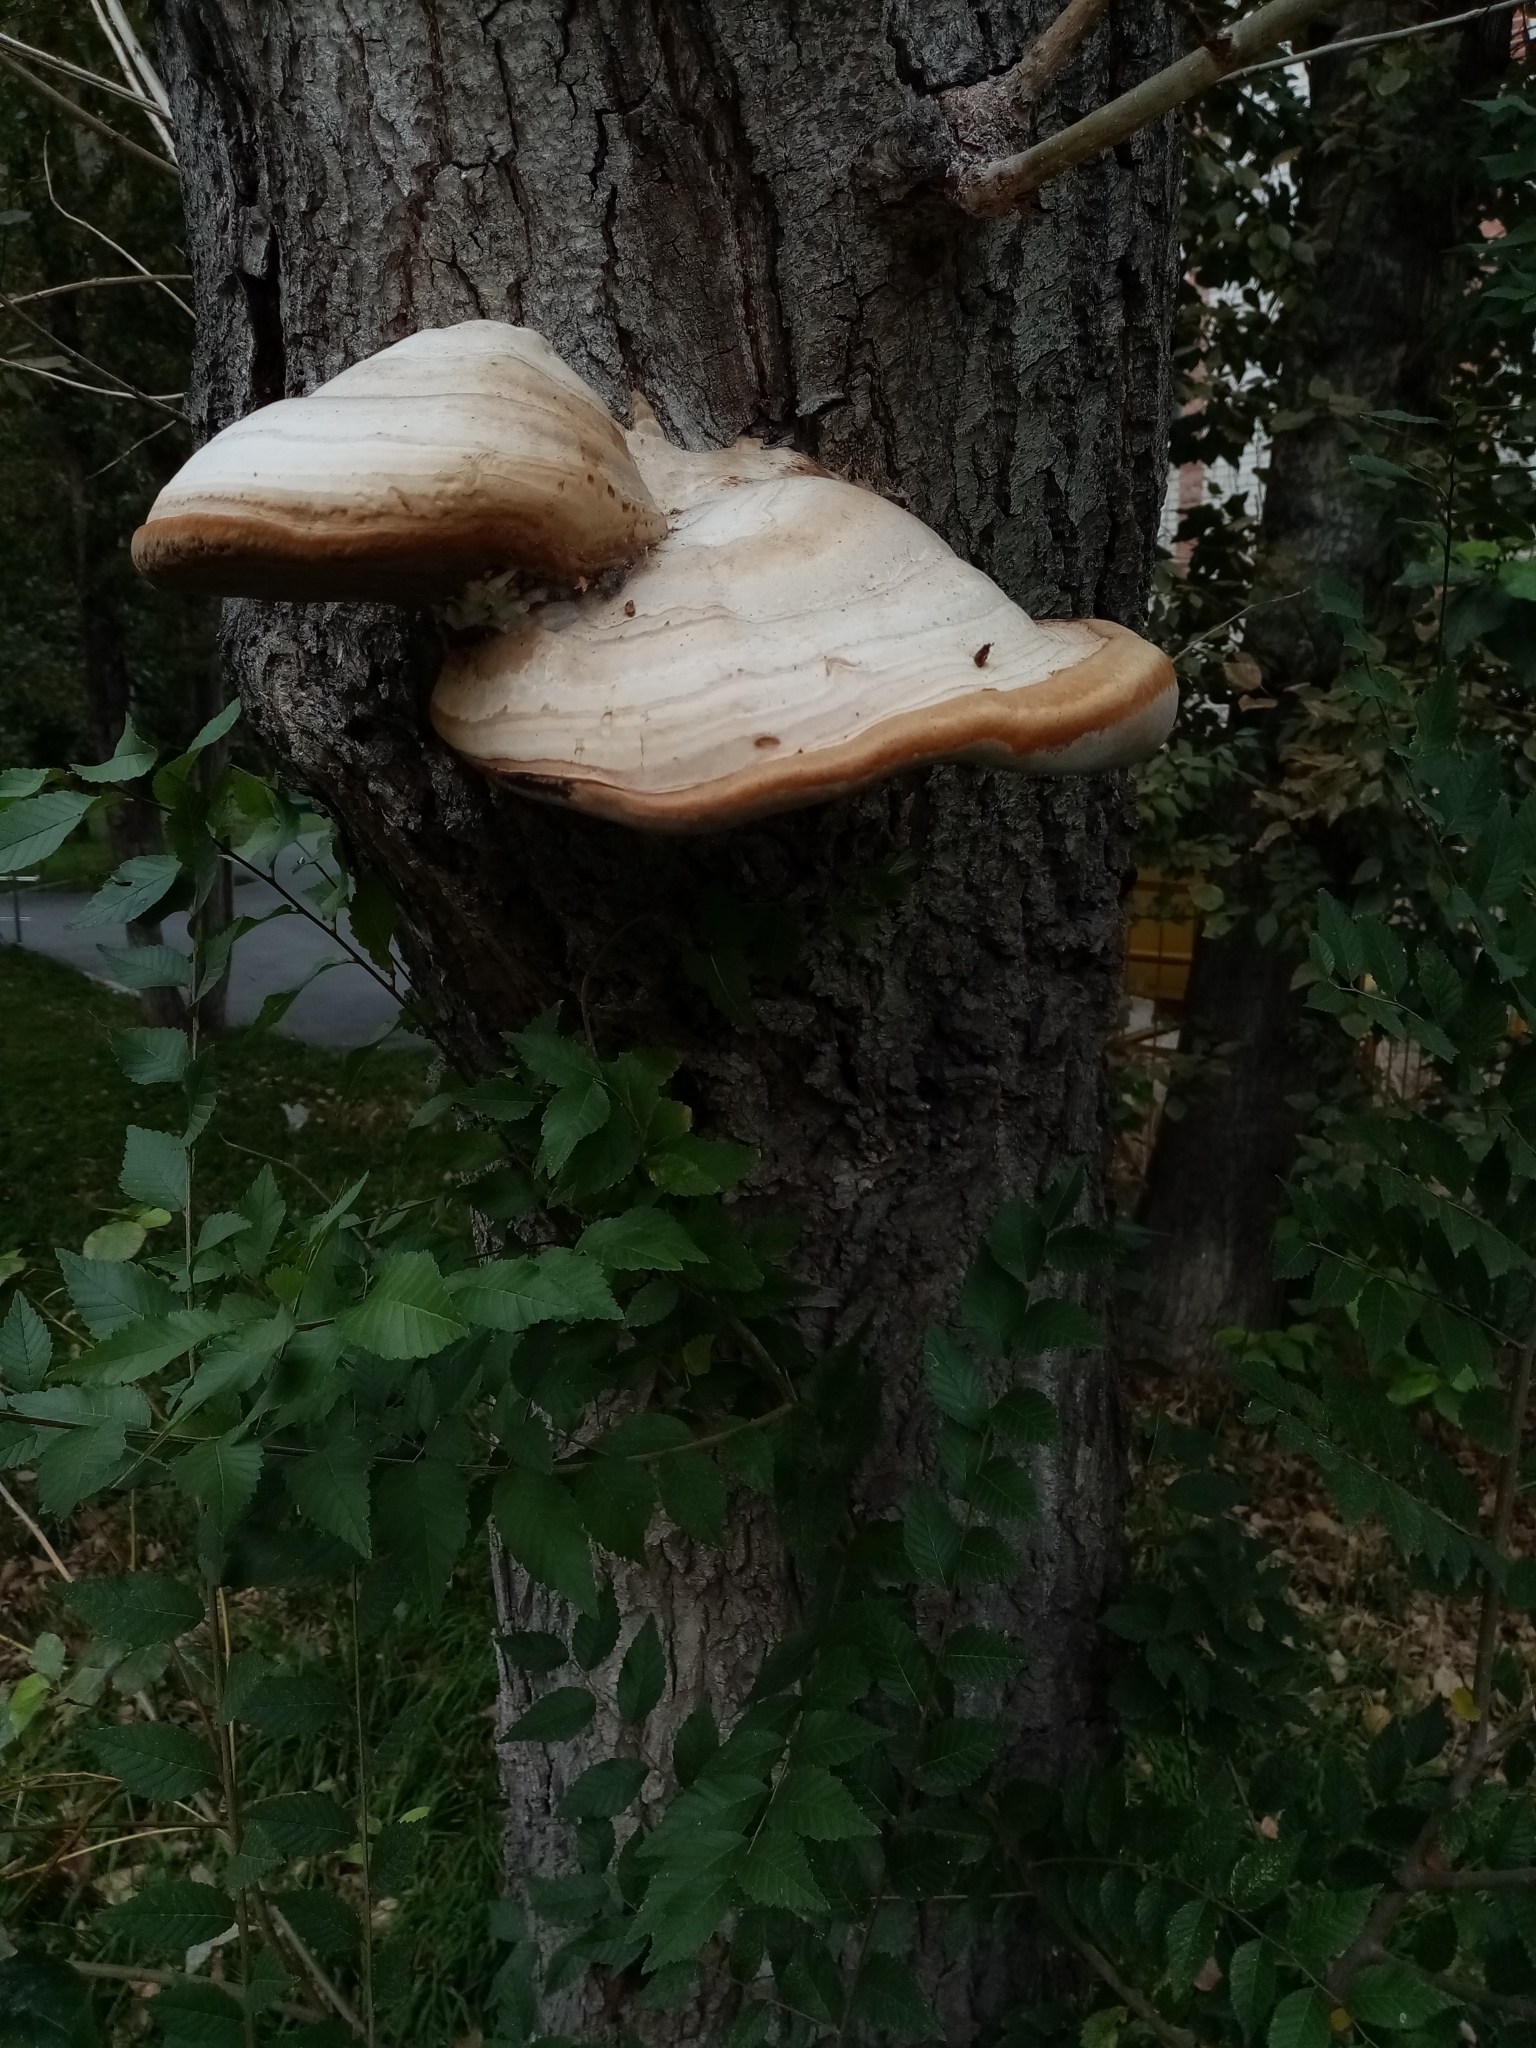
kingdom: Fungi
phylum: Basidiomycota
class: Agaricomycetes
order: Polyporales
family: Polyporaceae
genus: Fomes
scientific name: Fomes fomentarius
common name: Hoof fungus
